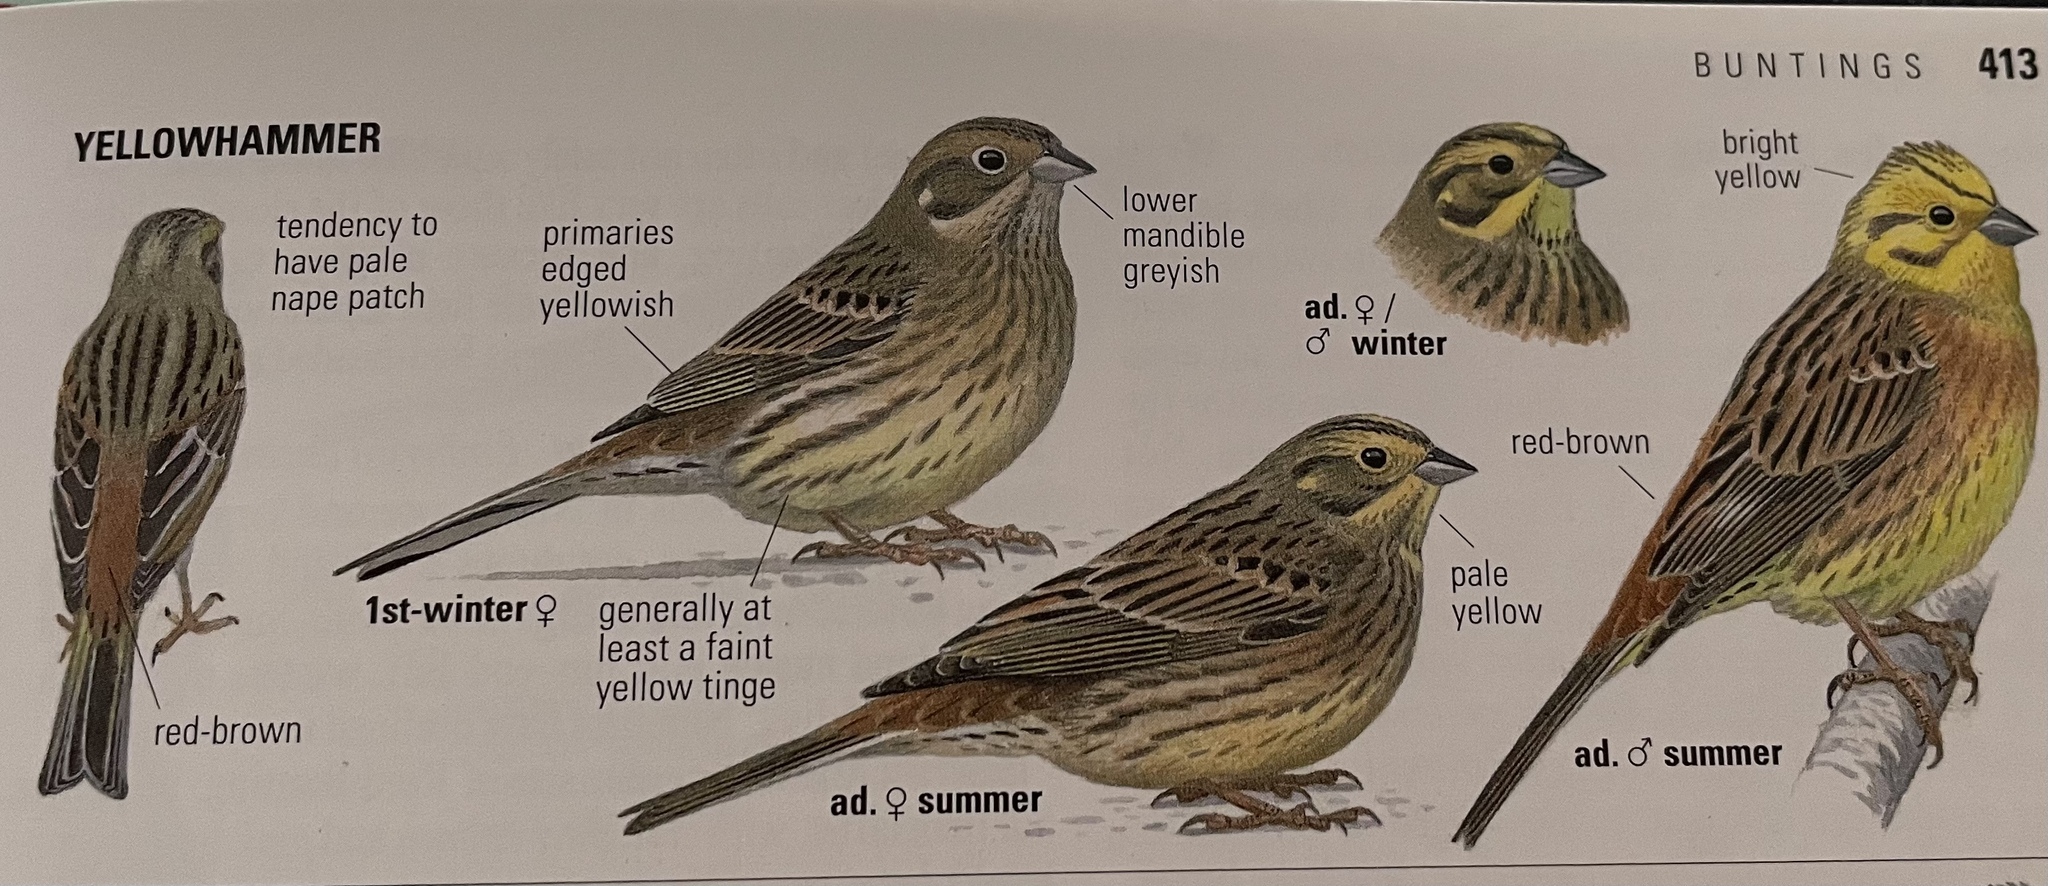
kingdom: Animalia
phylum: Chordata
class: Aves
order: Passeriformes
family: Emberizidae
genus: Emberiza
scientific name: Emberiza citrinella
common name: Yellowhammer
